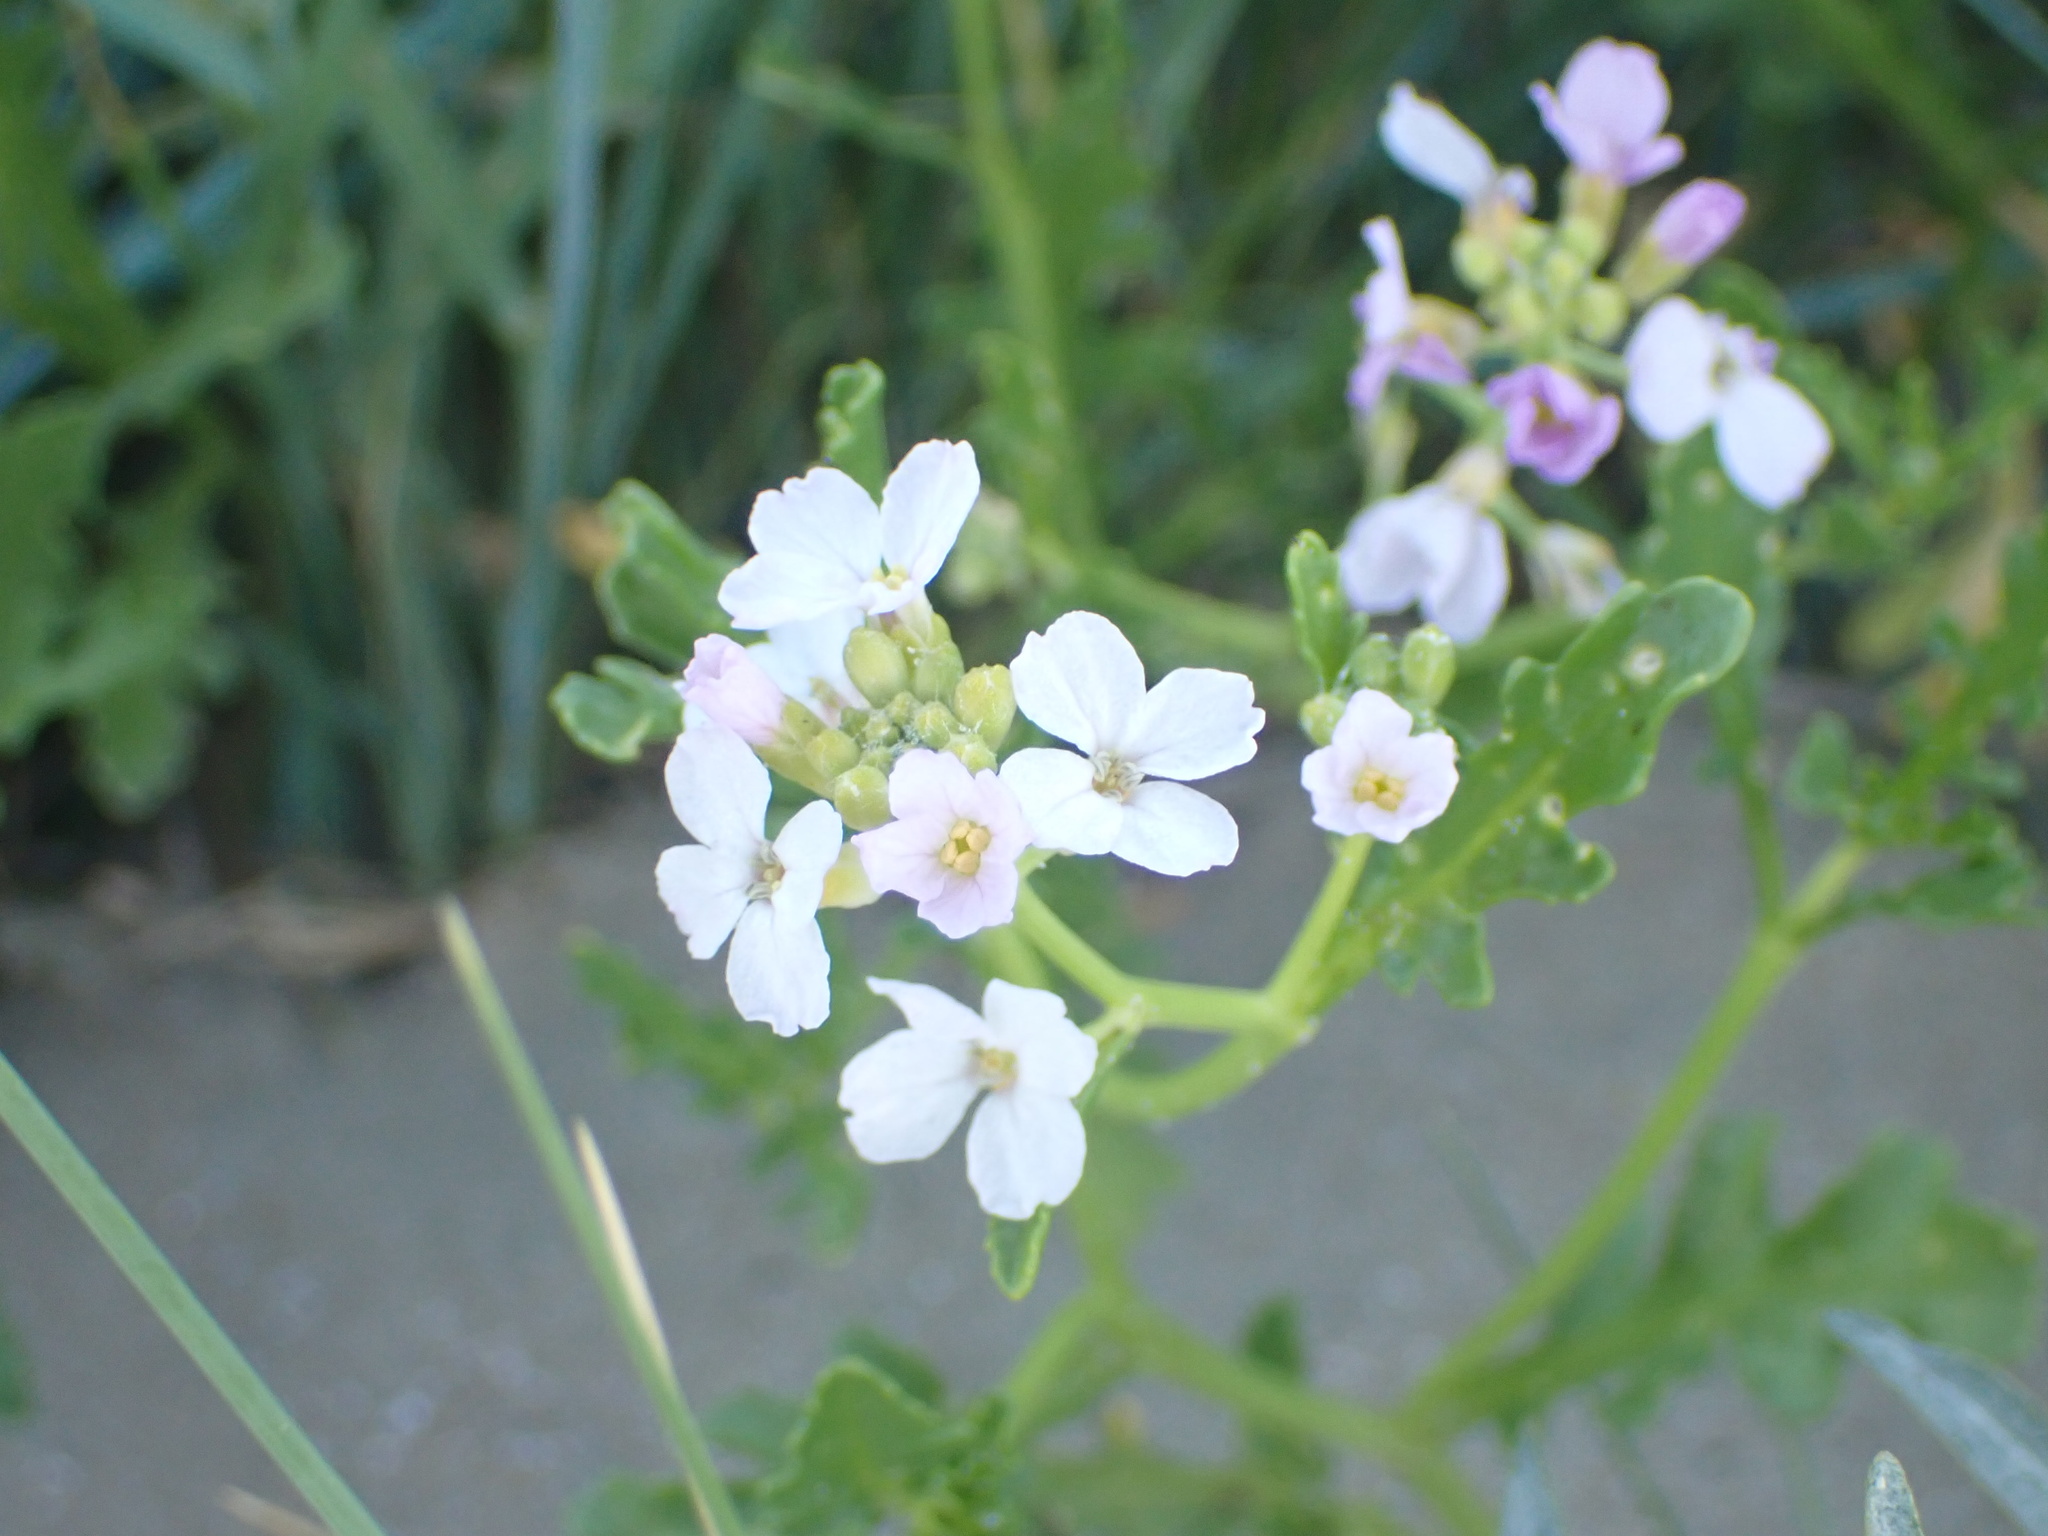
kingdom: Plantae
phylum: Tracheophyta
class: Magnoliopsida
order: Brassicales
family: Brassicaceae
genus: Cakile
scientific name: Cakile maritima
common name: Sea rocket
